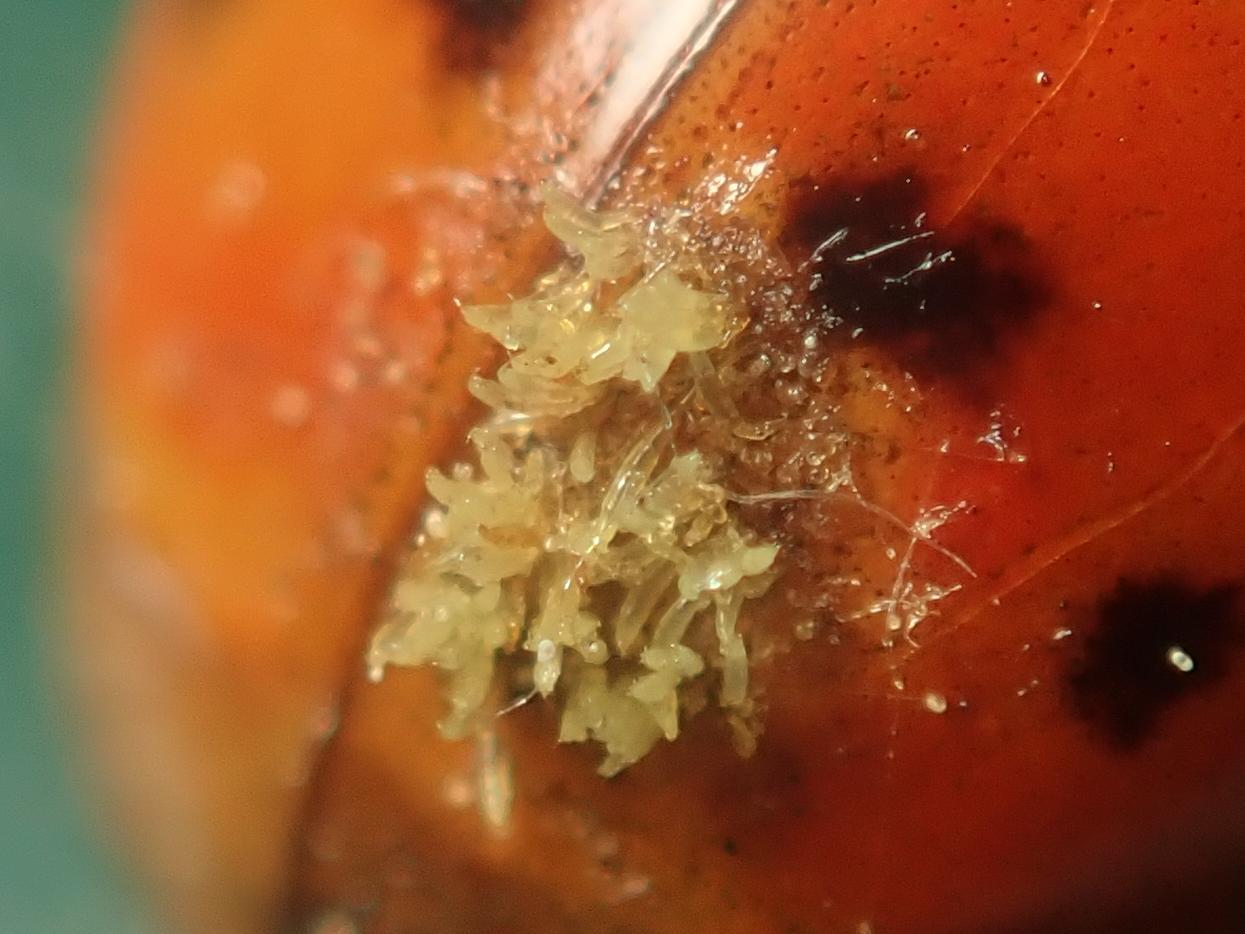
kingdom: Fungi
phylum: Ascomycota
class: Laboulbeniomycetes
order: Laboulbeniales
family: Laboulbeniaceae
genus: Hesperomyces
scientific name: Hesperomyces harmoniae
